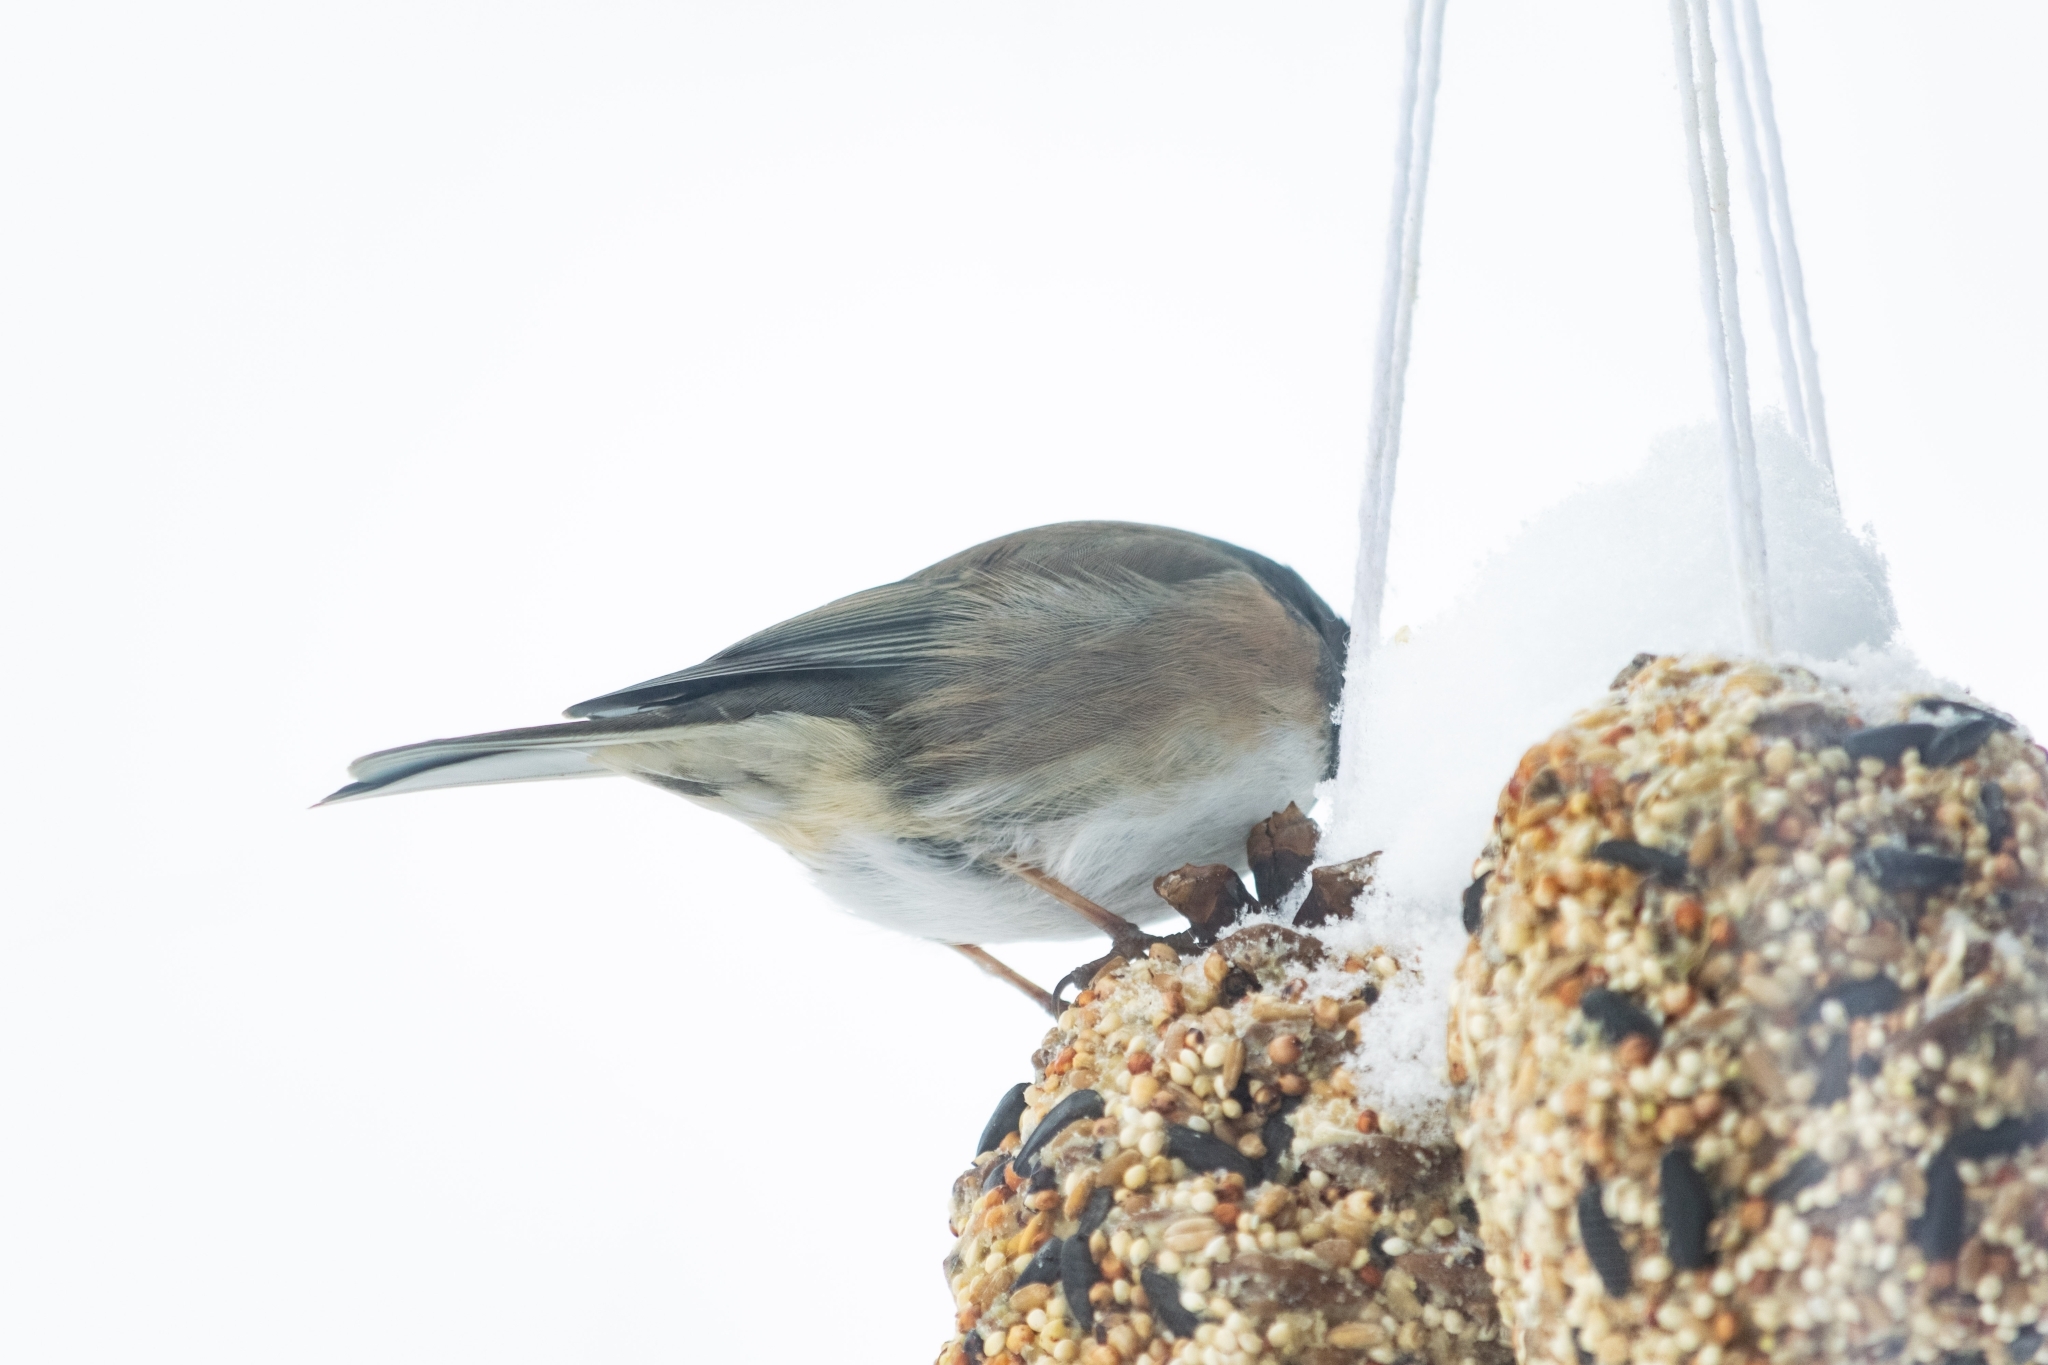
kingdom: Animalia
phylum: Chordata
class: Aves
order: Passeriformes
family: Passerellidae
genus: Junco
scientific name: Junco hyemalis
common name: Dark-eyed junco
